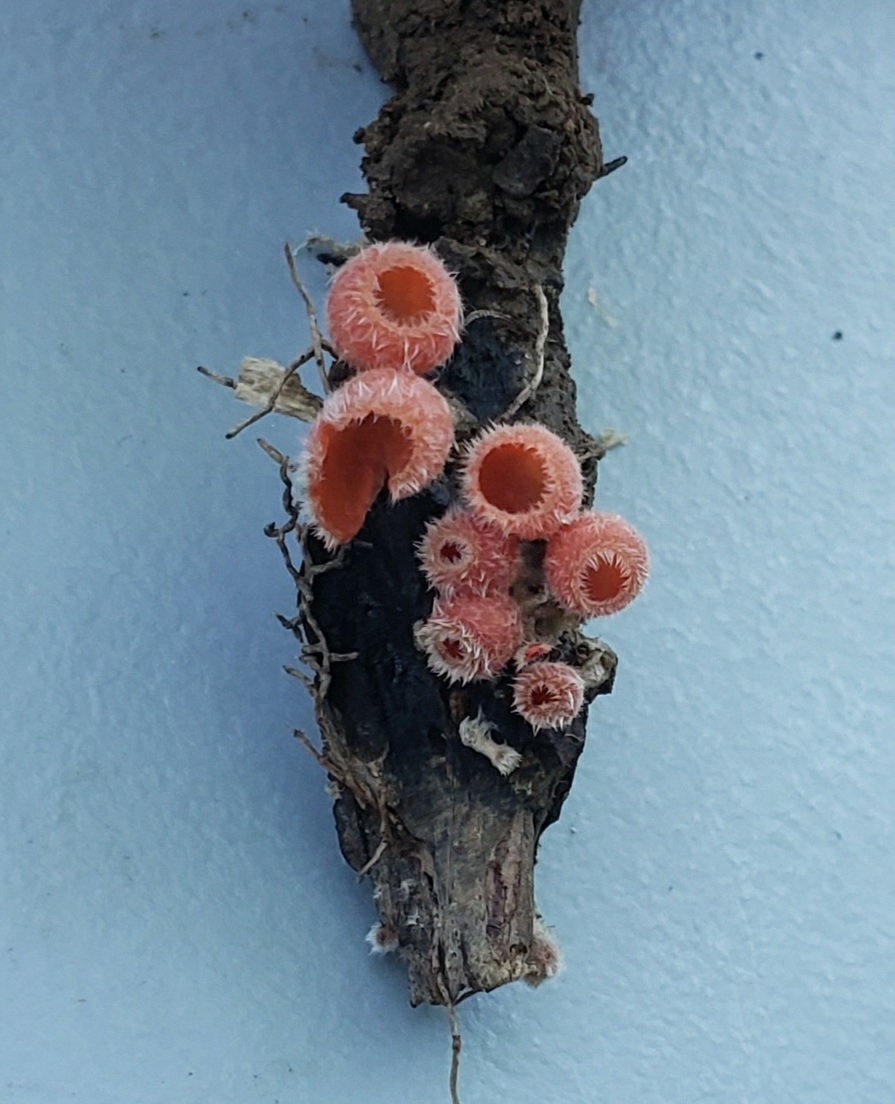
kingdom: Fungi
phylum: Ascomycota
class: Pezizomycetes
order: Pezizales
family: Sarcoscyphaceae
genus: Microstoma
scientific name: Microstoma floccosum
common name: Pink fringed faery cup
